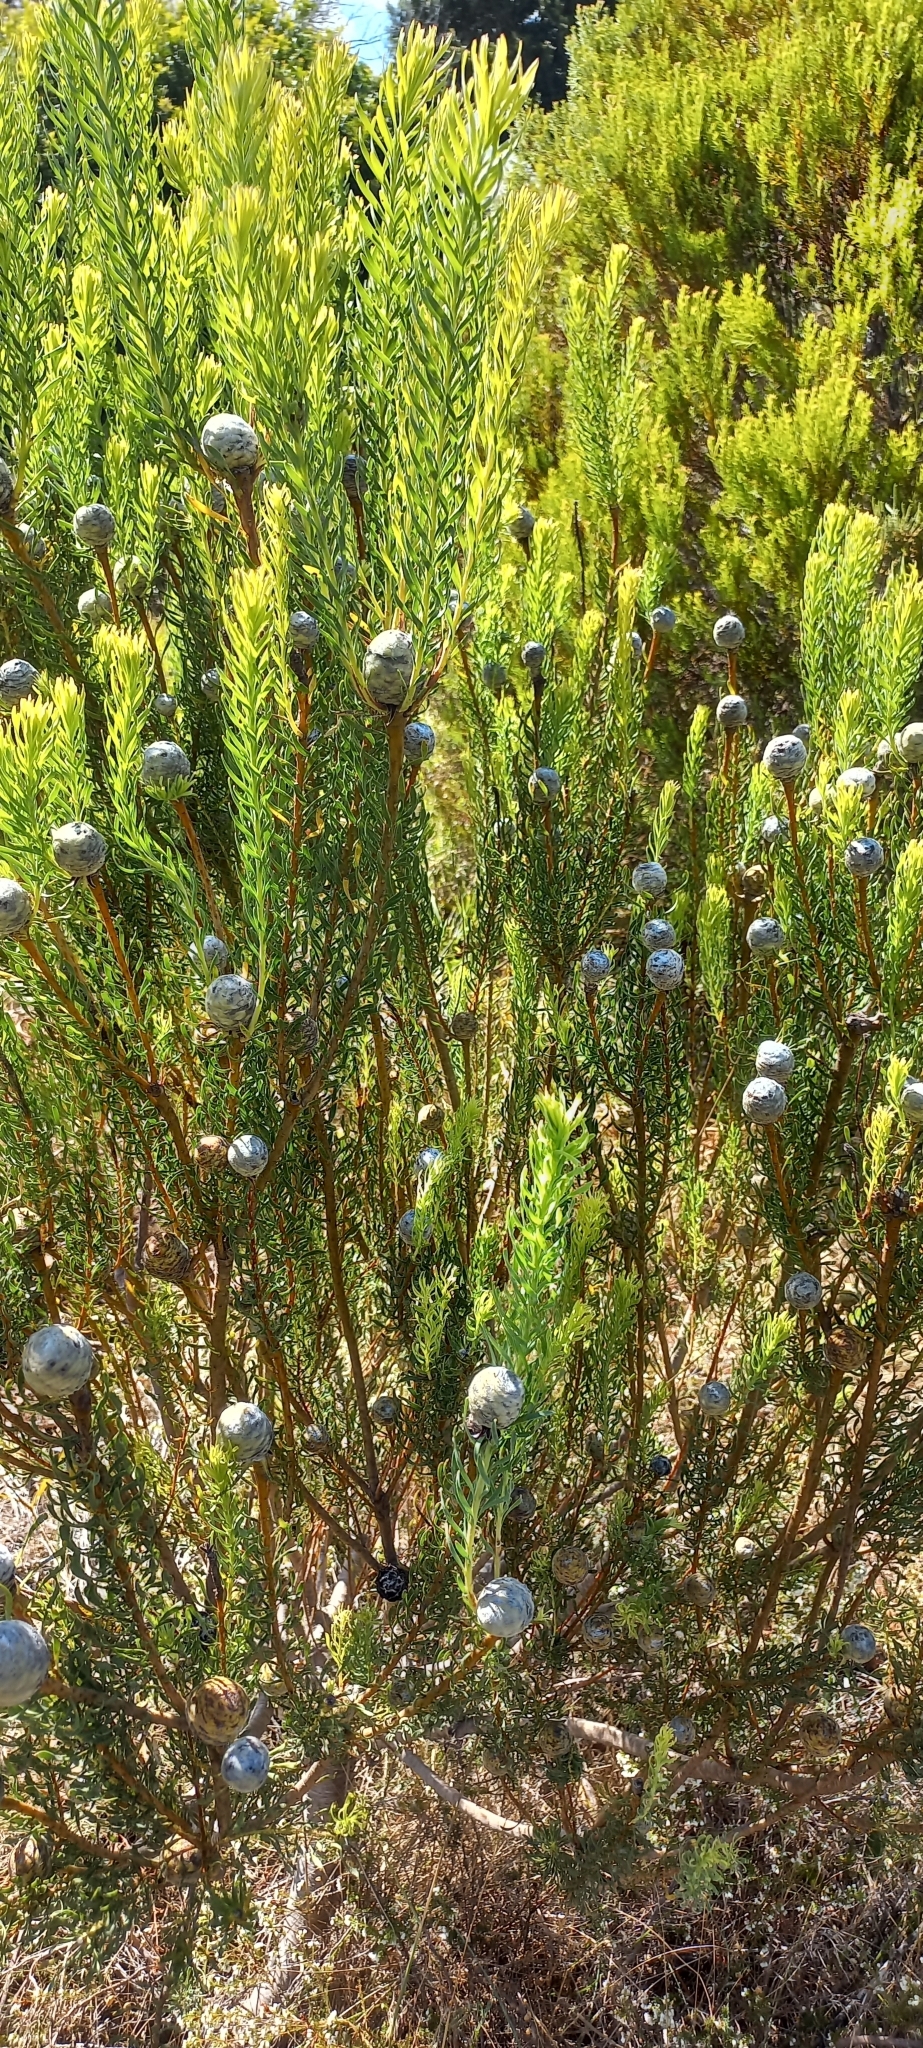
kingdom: Plantae
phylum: Tracheophyta
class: Magnoliopsida
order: Proteales
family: Proteaceae
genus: Leucadendron
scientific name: Leucadendron linifolium
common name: Line-leaf conebush
